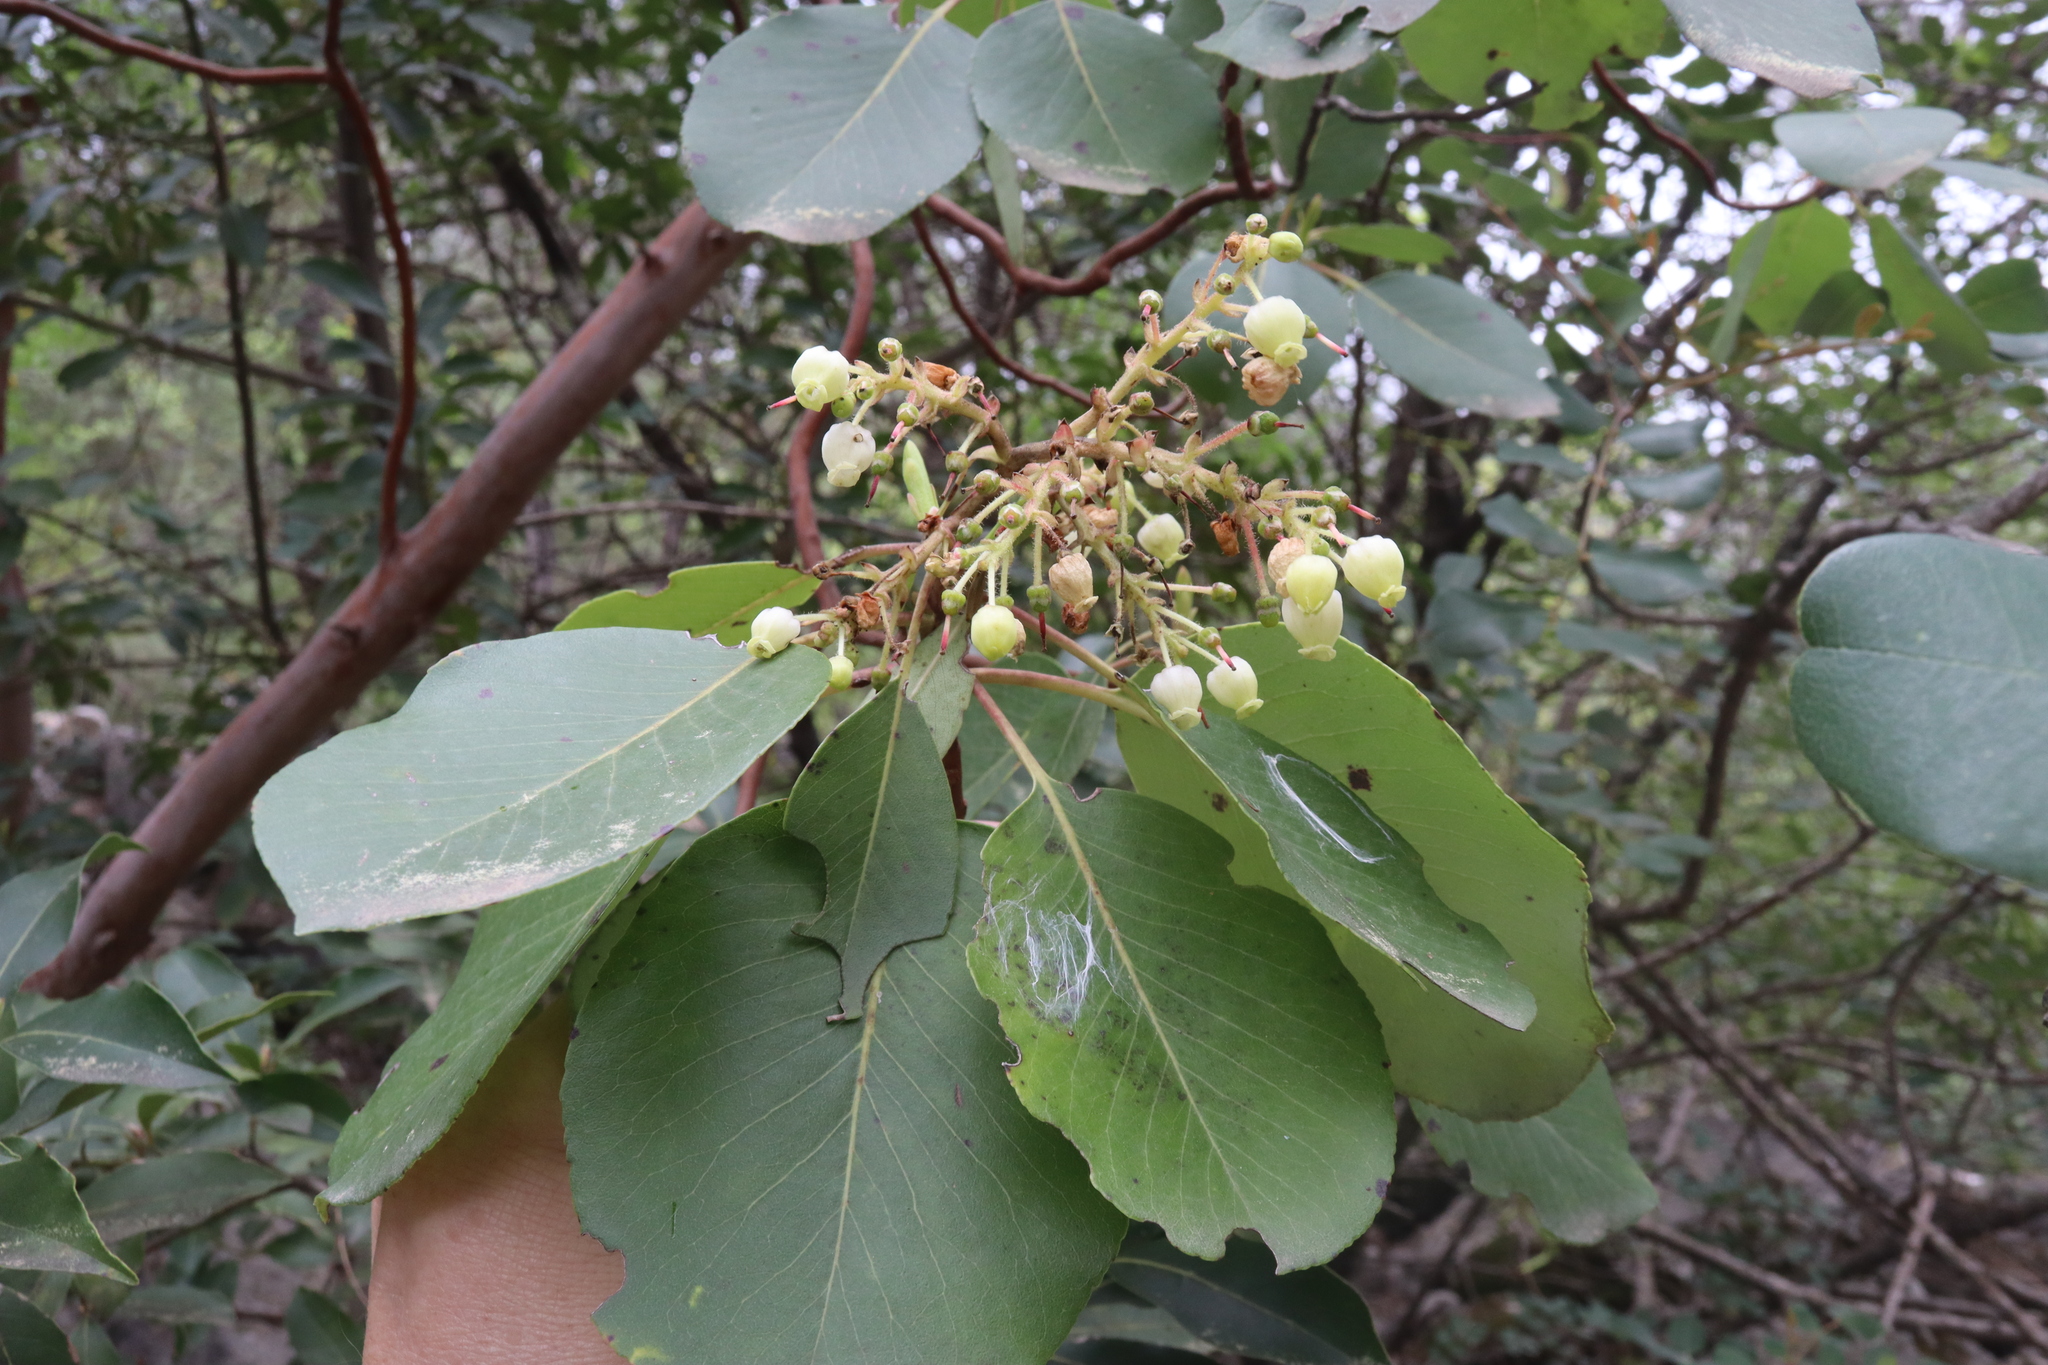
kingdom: Plantae
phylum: Tracheophyta
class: Magnoliopsida
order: Ericales
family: Ericaceae
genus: Arbutus
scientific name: Arbutus andrachne
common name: Greek strawberry tree
